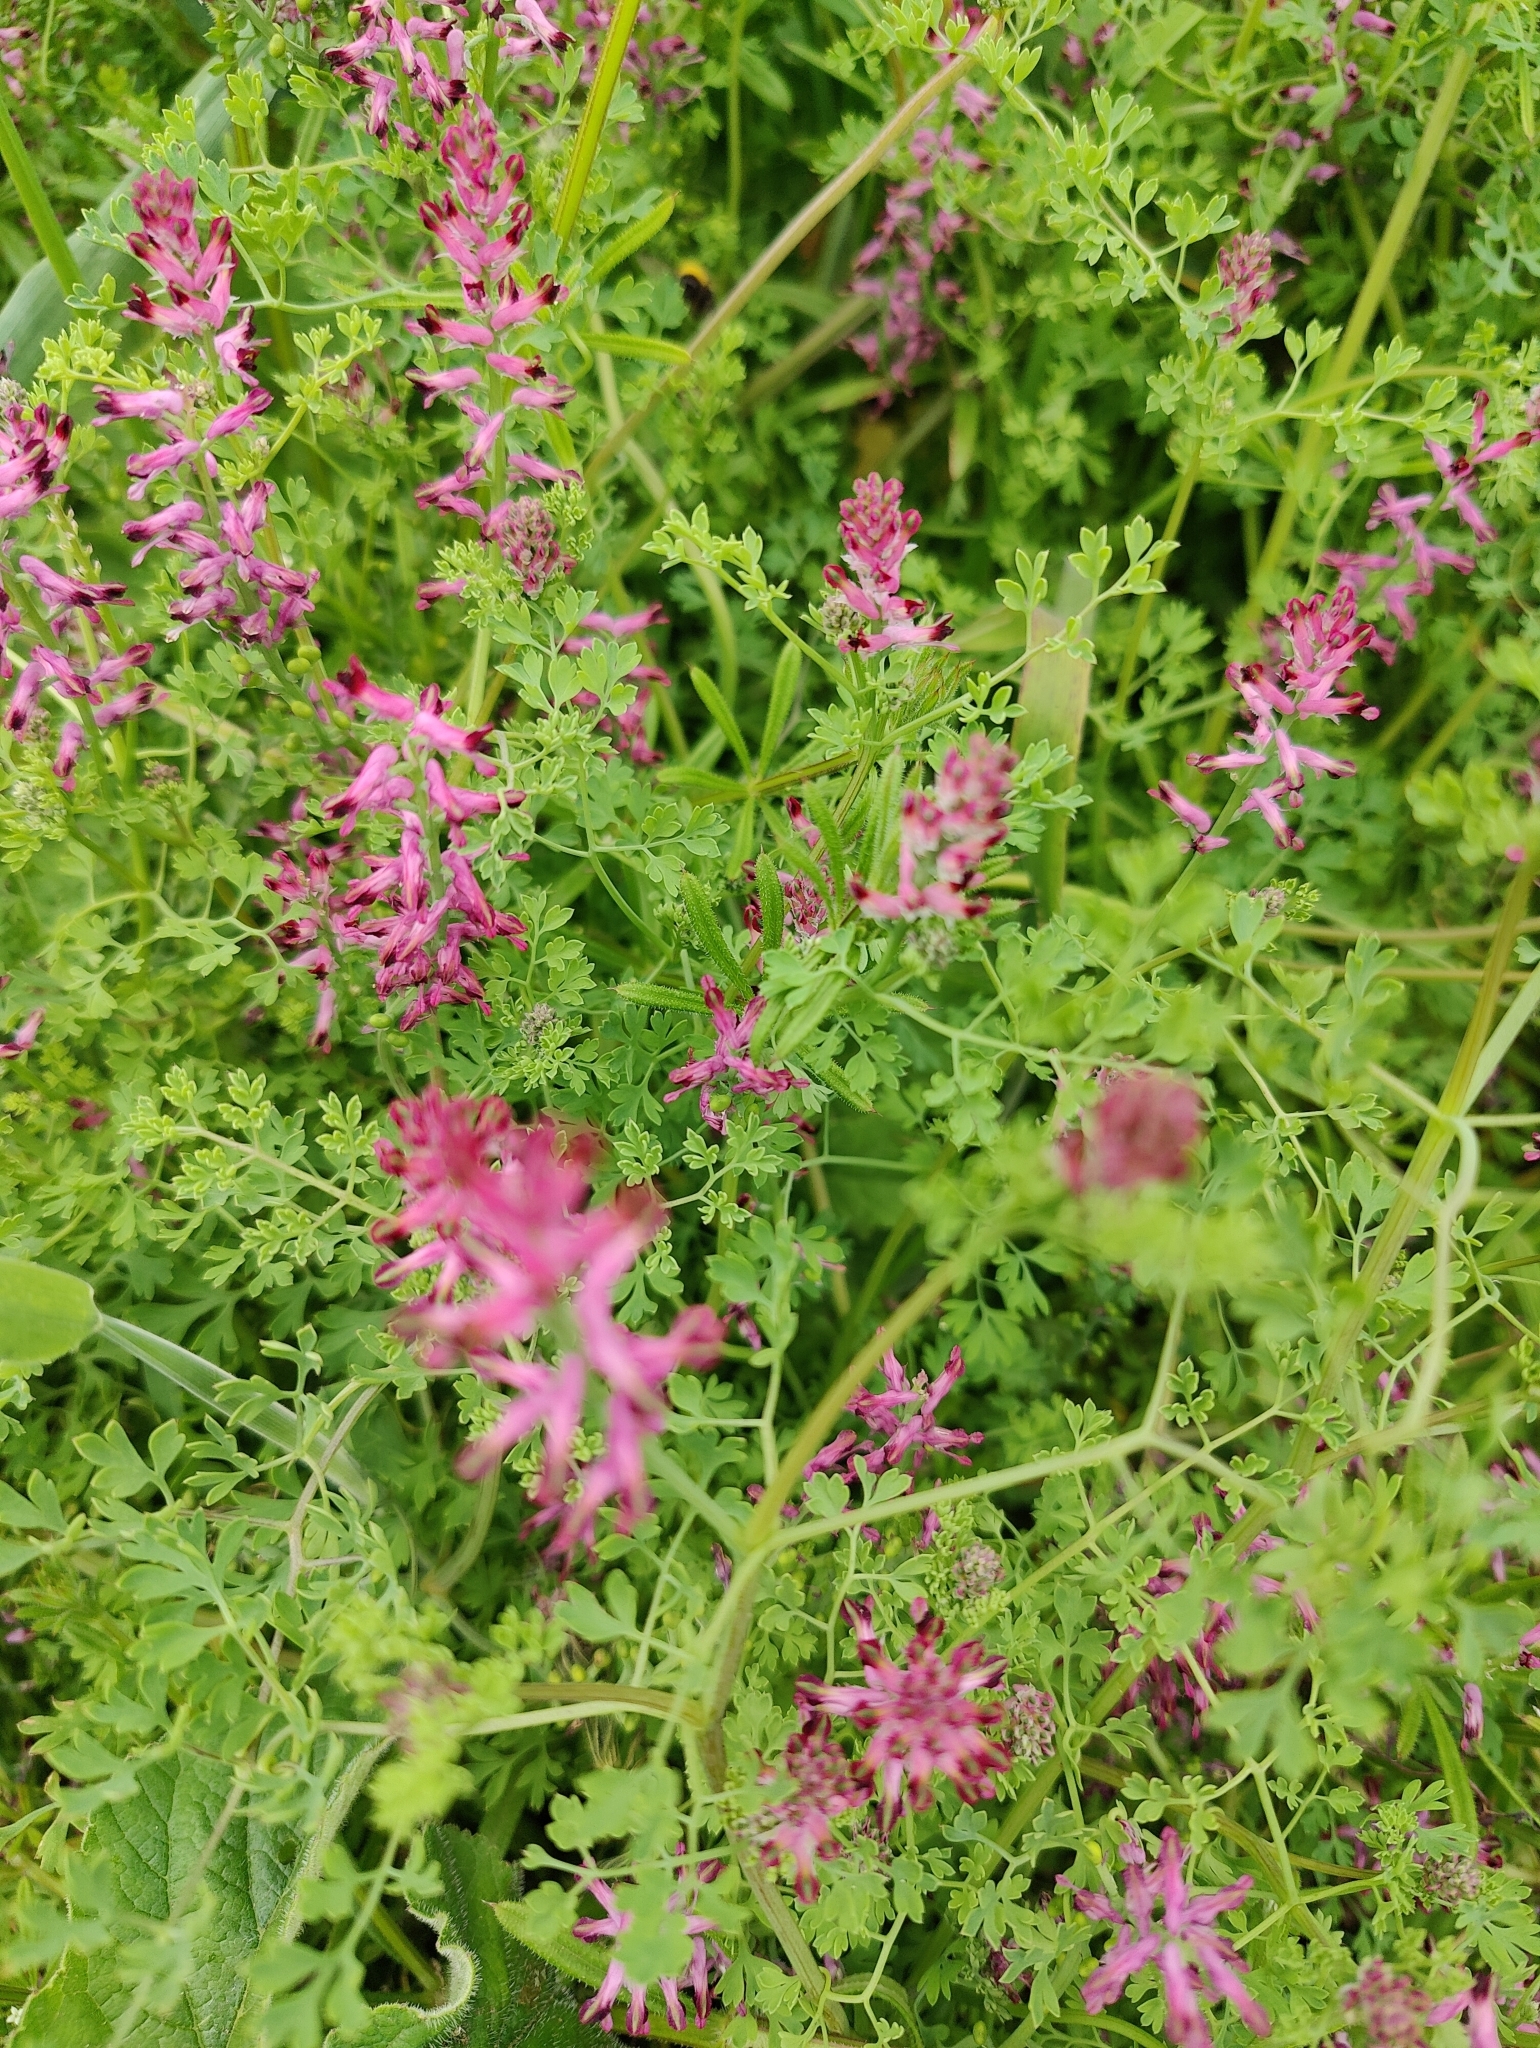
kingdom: Plantae
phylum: Tracheophyta
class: Magnoliopsida
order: Ranunculales
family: Papaveraceae
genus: Fumaria
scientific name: Fumaria officinalis
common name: Common fumitory
